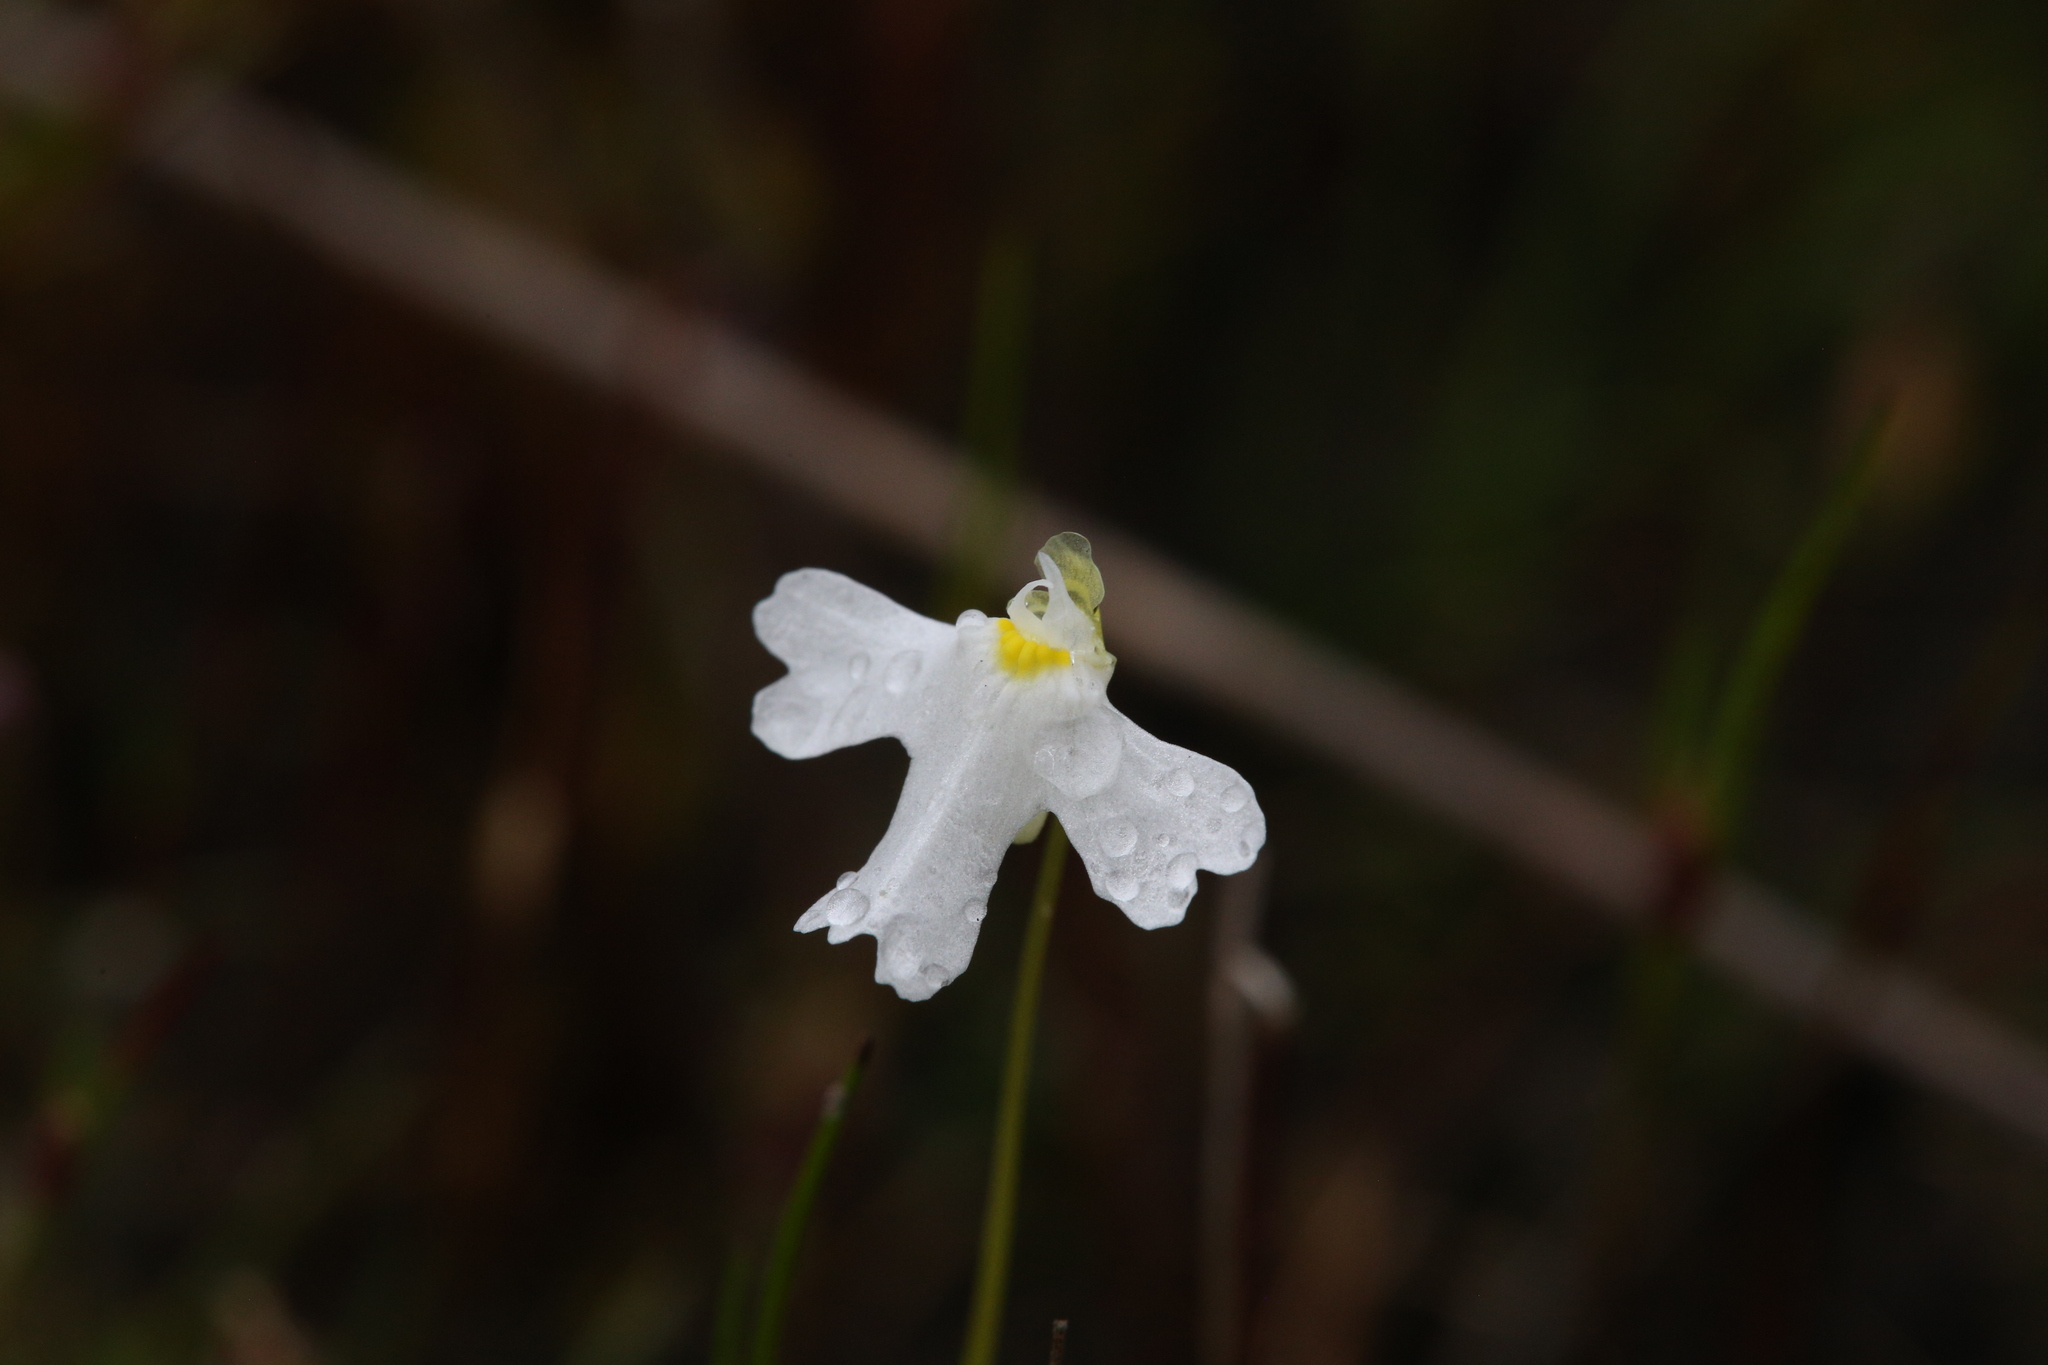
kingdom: Plantae
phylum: Tracheophyta
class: Magnoliopsida
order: Lamiales
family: Lentibulariaceae
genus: Utricularia
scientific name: Utricularia multifida
